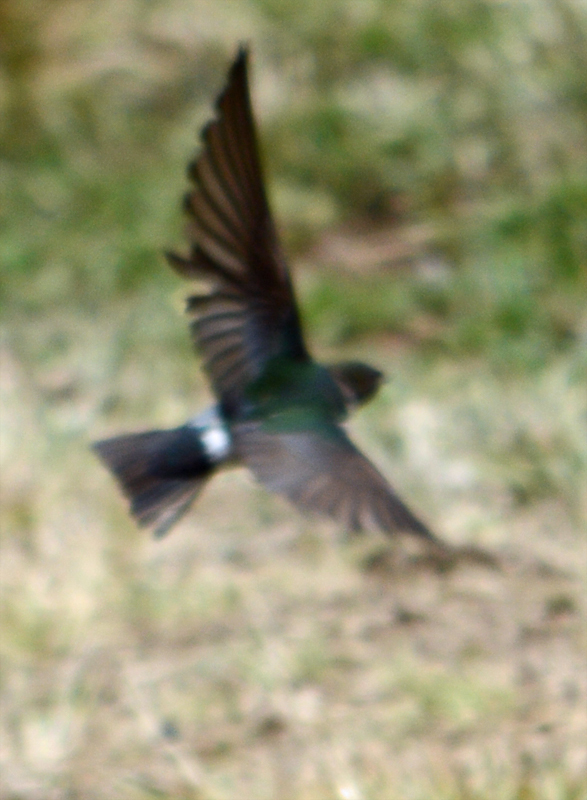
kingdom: Animalia
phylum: Chordata
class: Aves
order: Passeriformes
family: Hirundinidae
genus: Tachycineta
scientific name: Tachycineta thalassina
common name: Violet-green swallow
